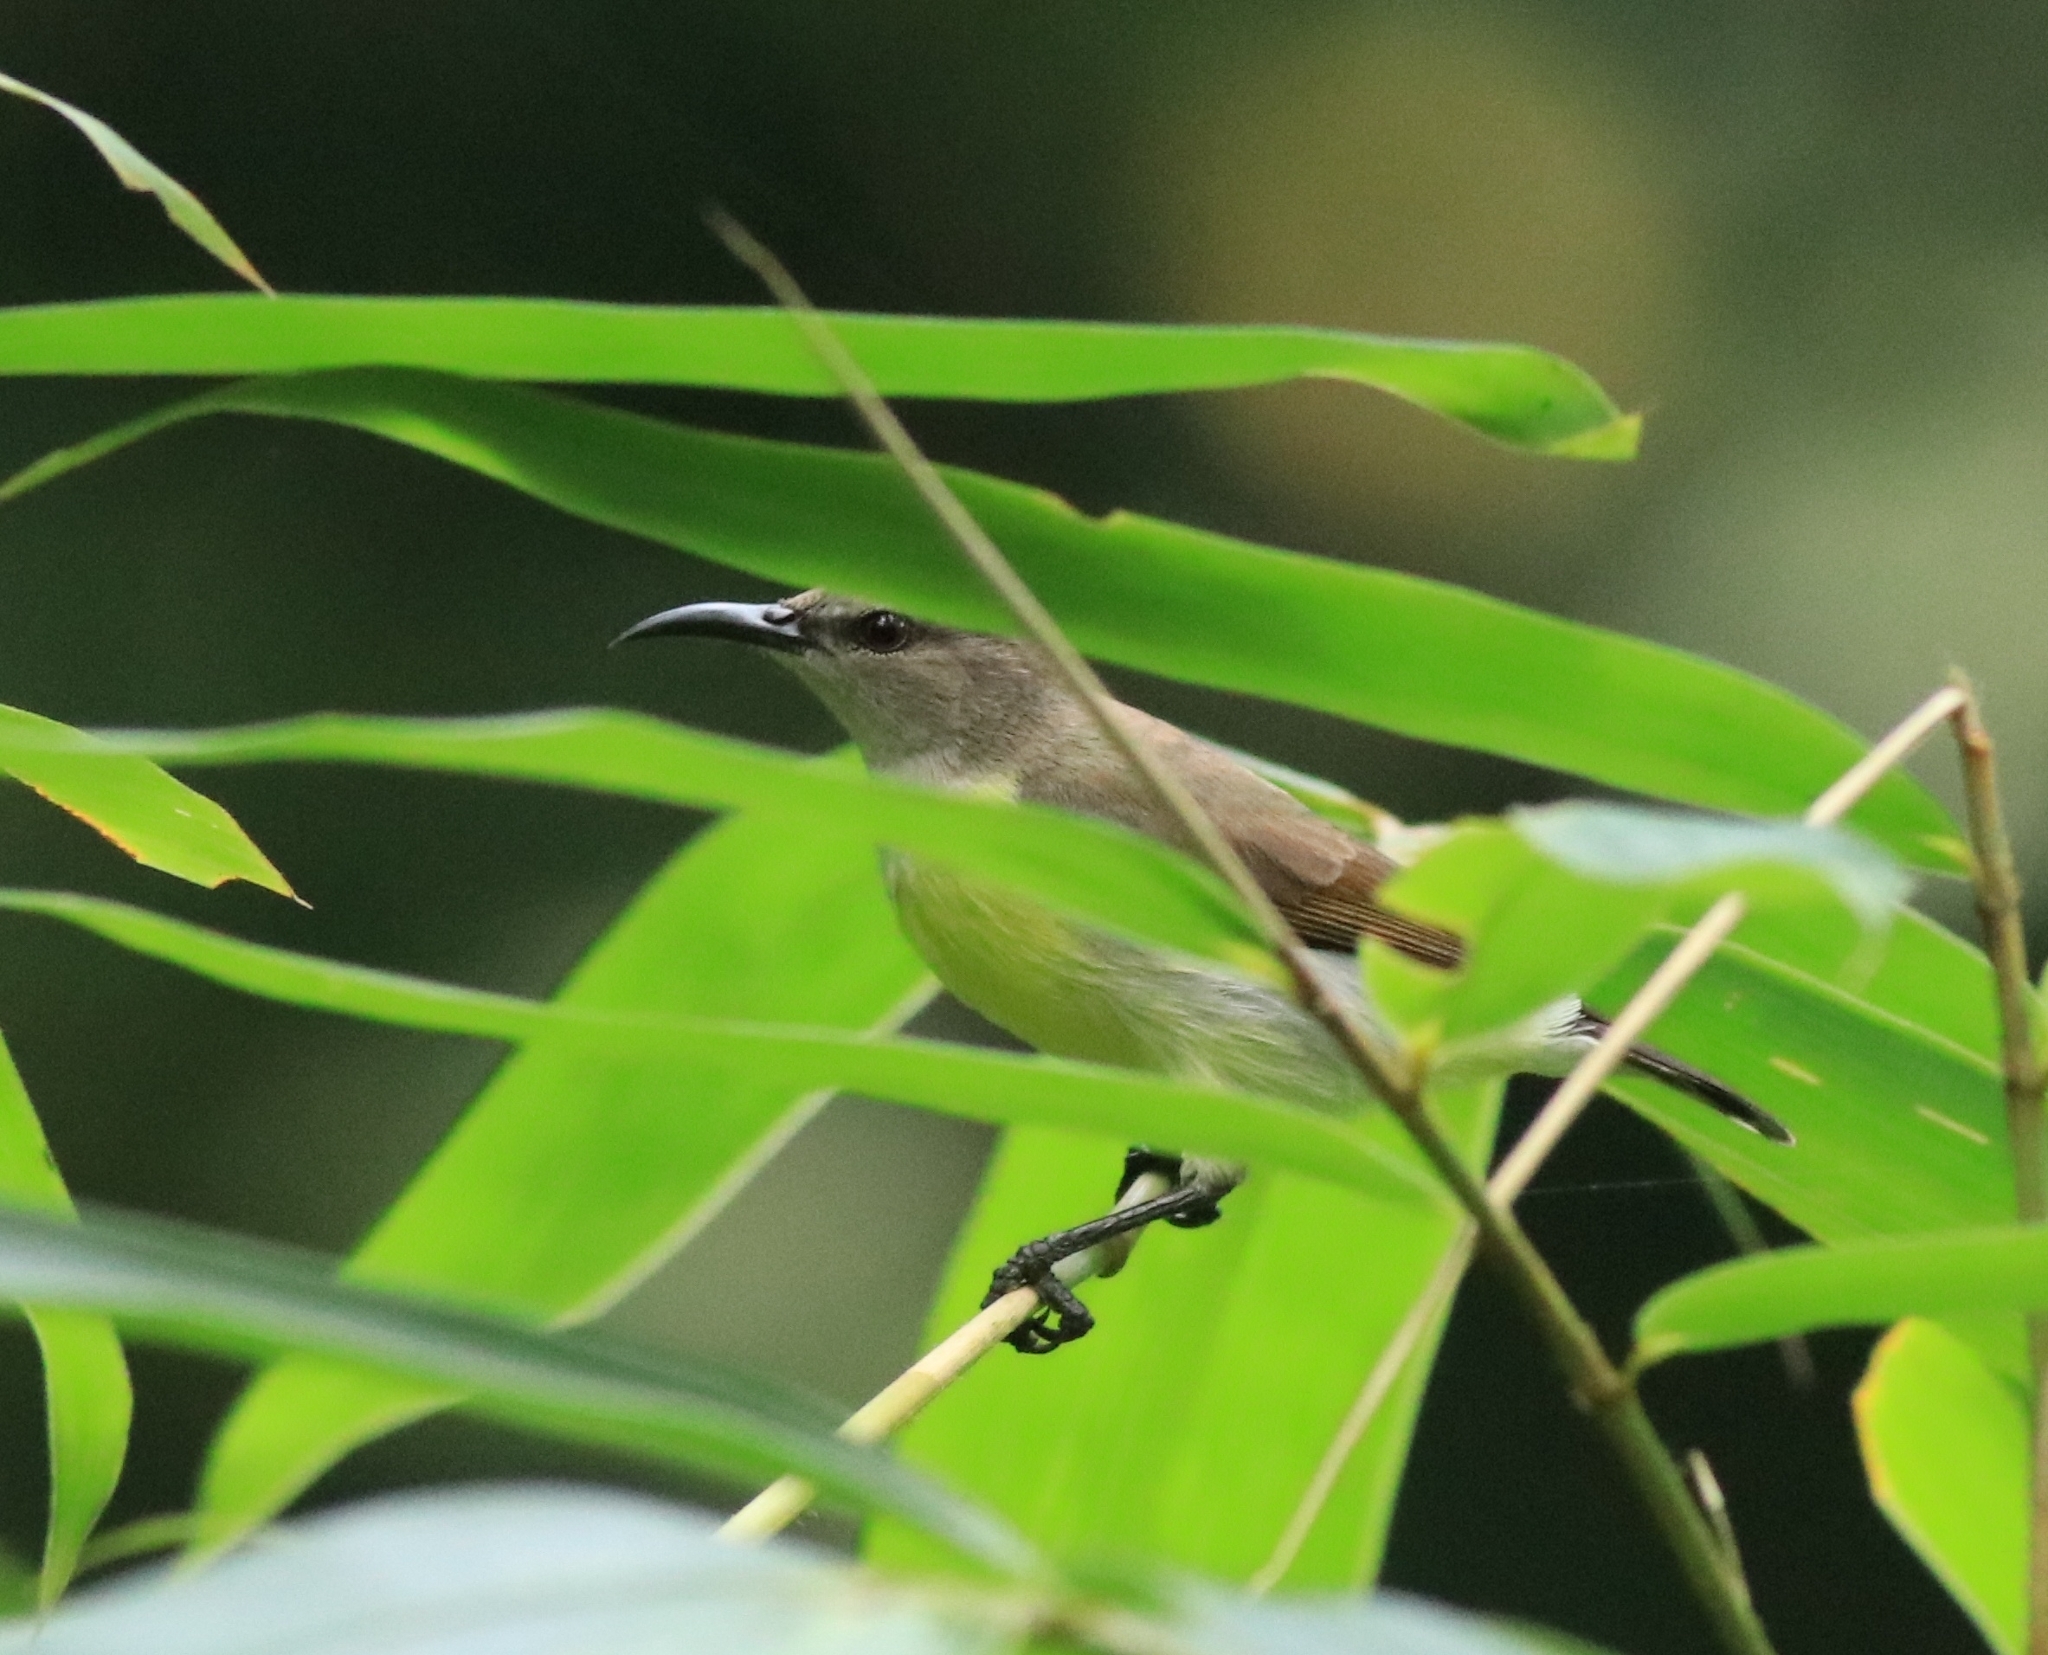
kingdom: Animalia
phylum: Chordata
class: Aves
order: Passeriformes
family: Nectariniidae
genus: Leptocoma
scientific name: Leptocoma zeylonica
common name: Purple-rumped sunbird
